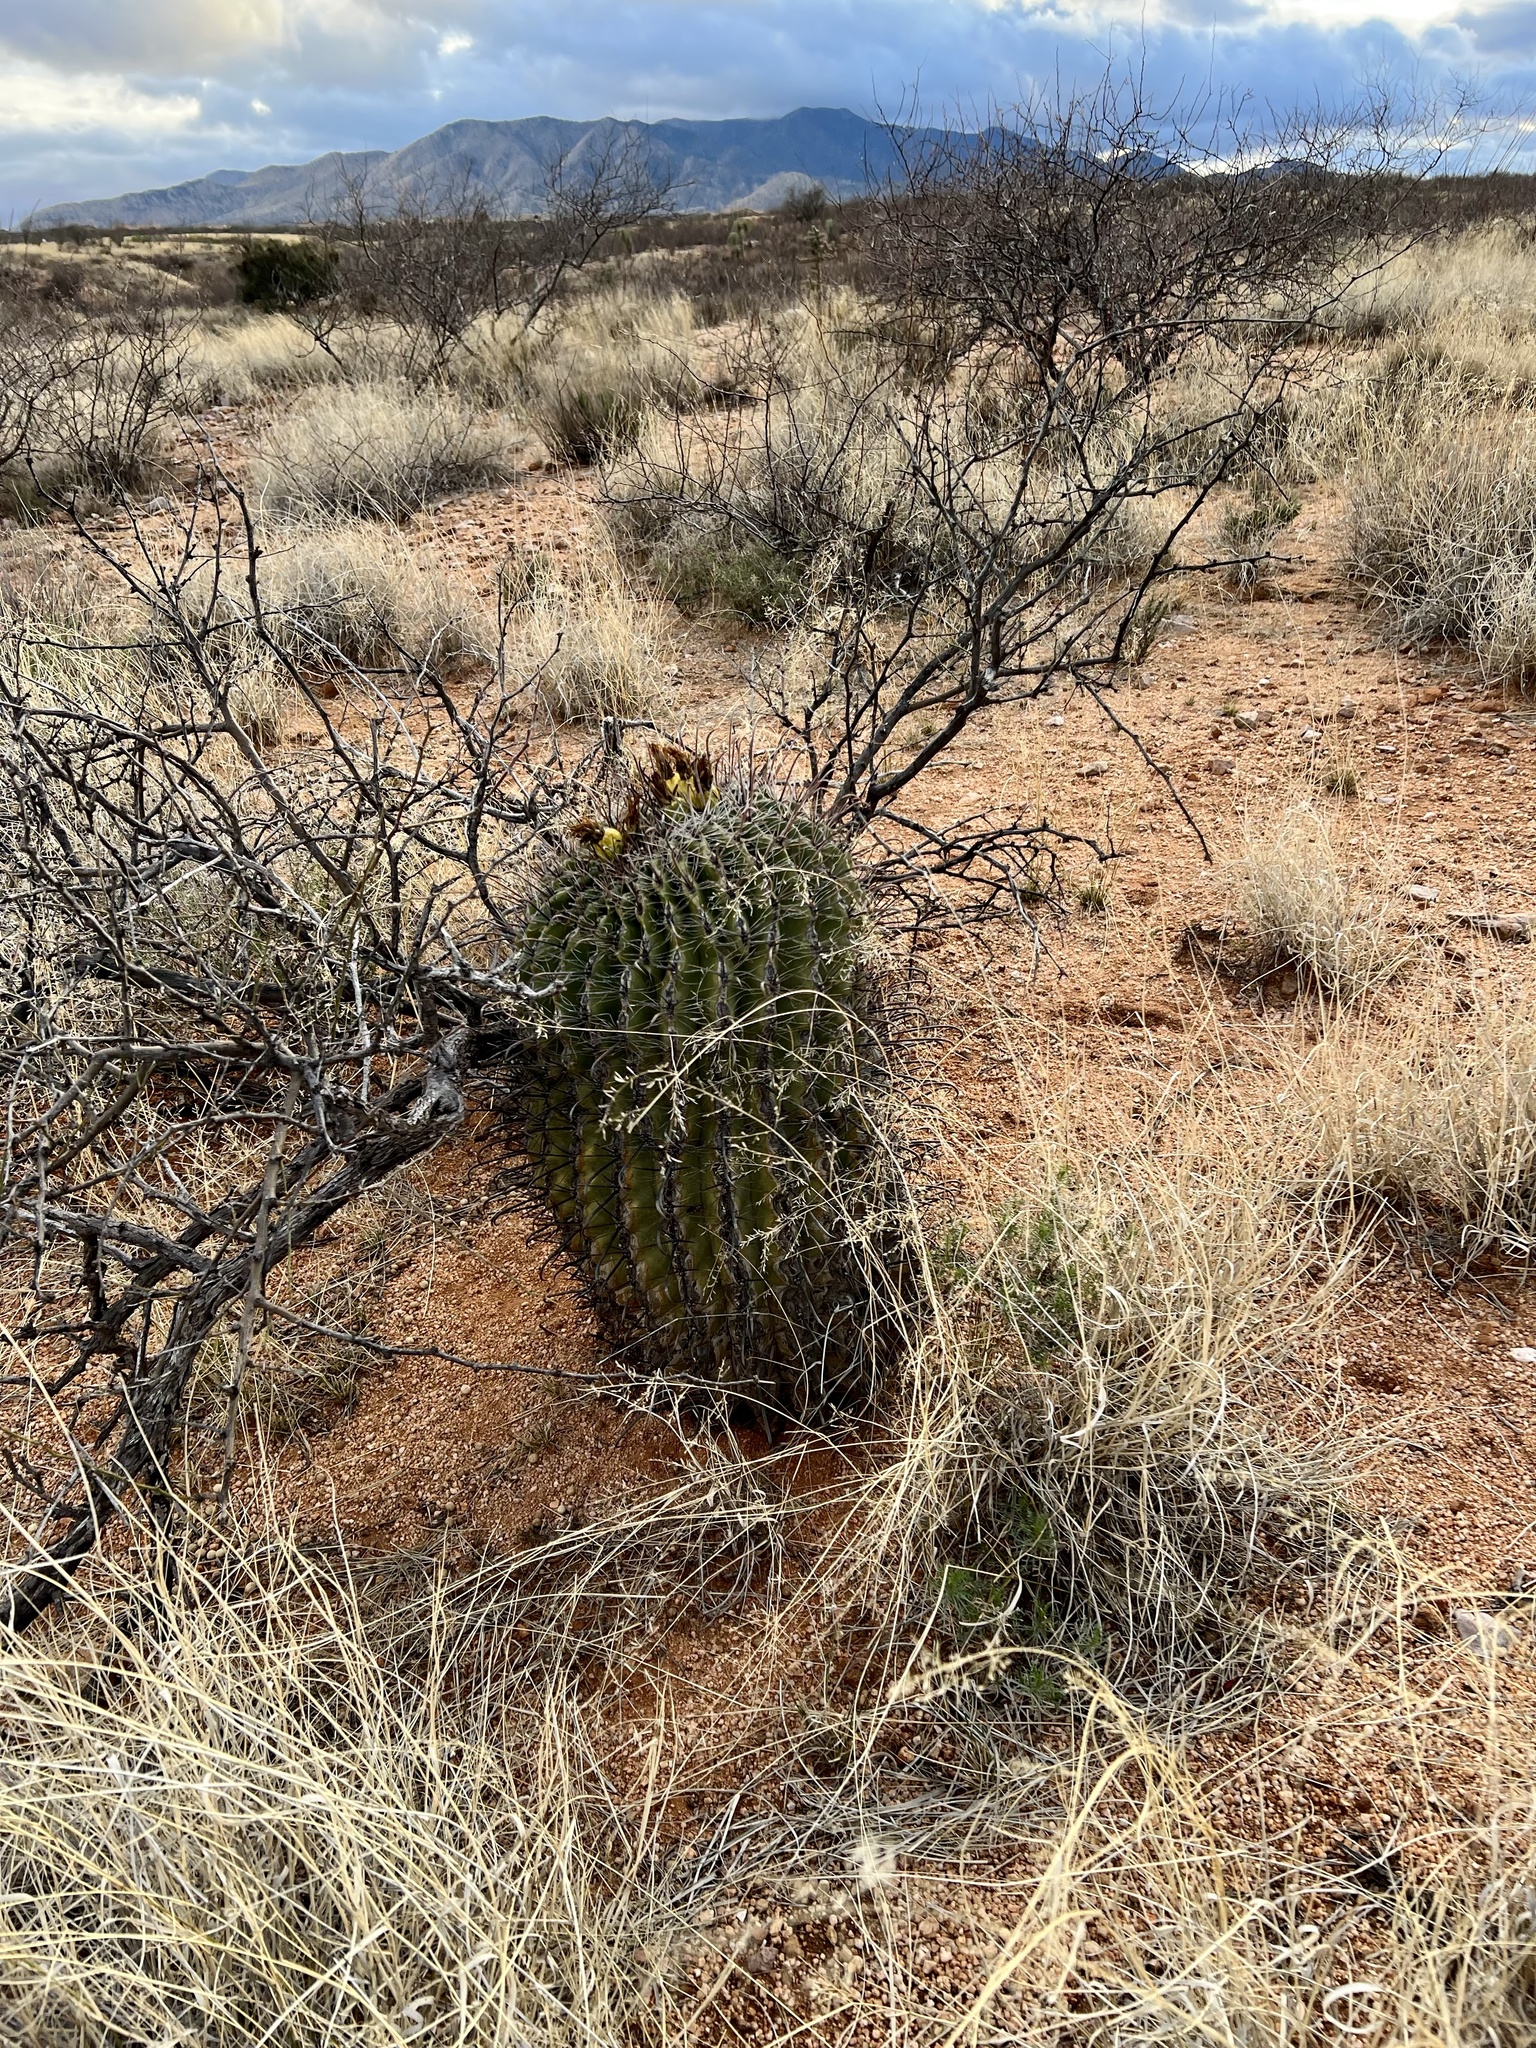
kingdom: Plantae
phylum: Tracheophyta
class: Magnoliopsida
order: Caryophyllales
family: Cactaceae
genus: Ferocactus
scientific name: Ferocactus wislizeni
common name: Candy barrel cactus
